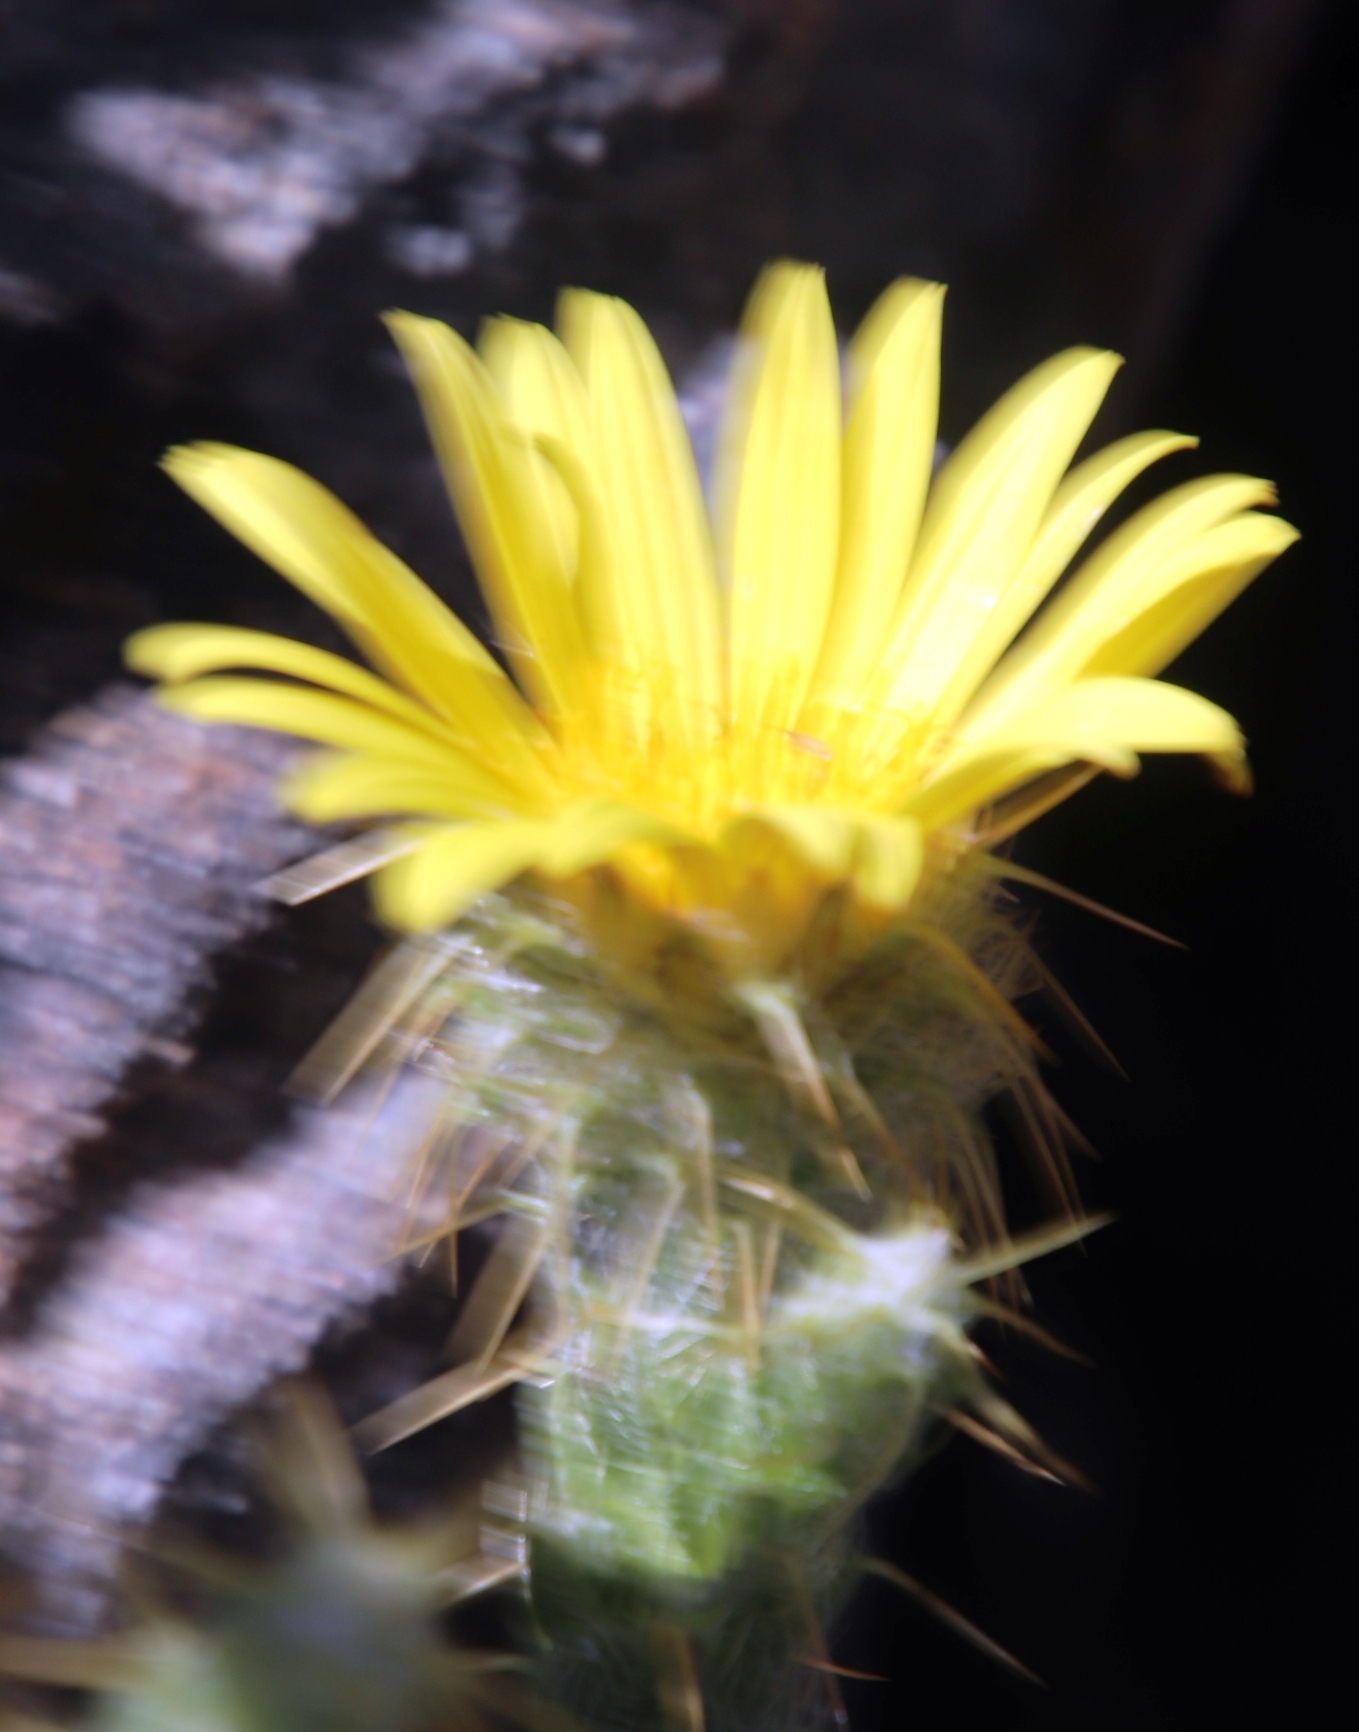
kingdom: Plantae
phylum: Tracheophyta
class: Magnoliopsida
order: Asterales
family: Asteraceae
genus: Cullumia
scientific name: Cullumia reticulata
